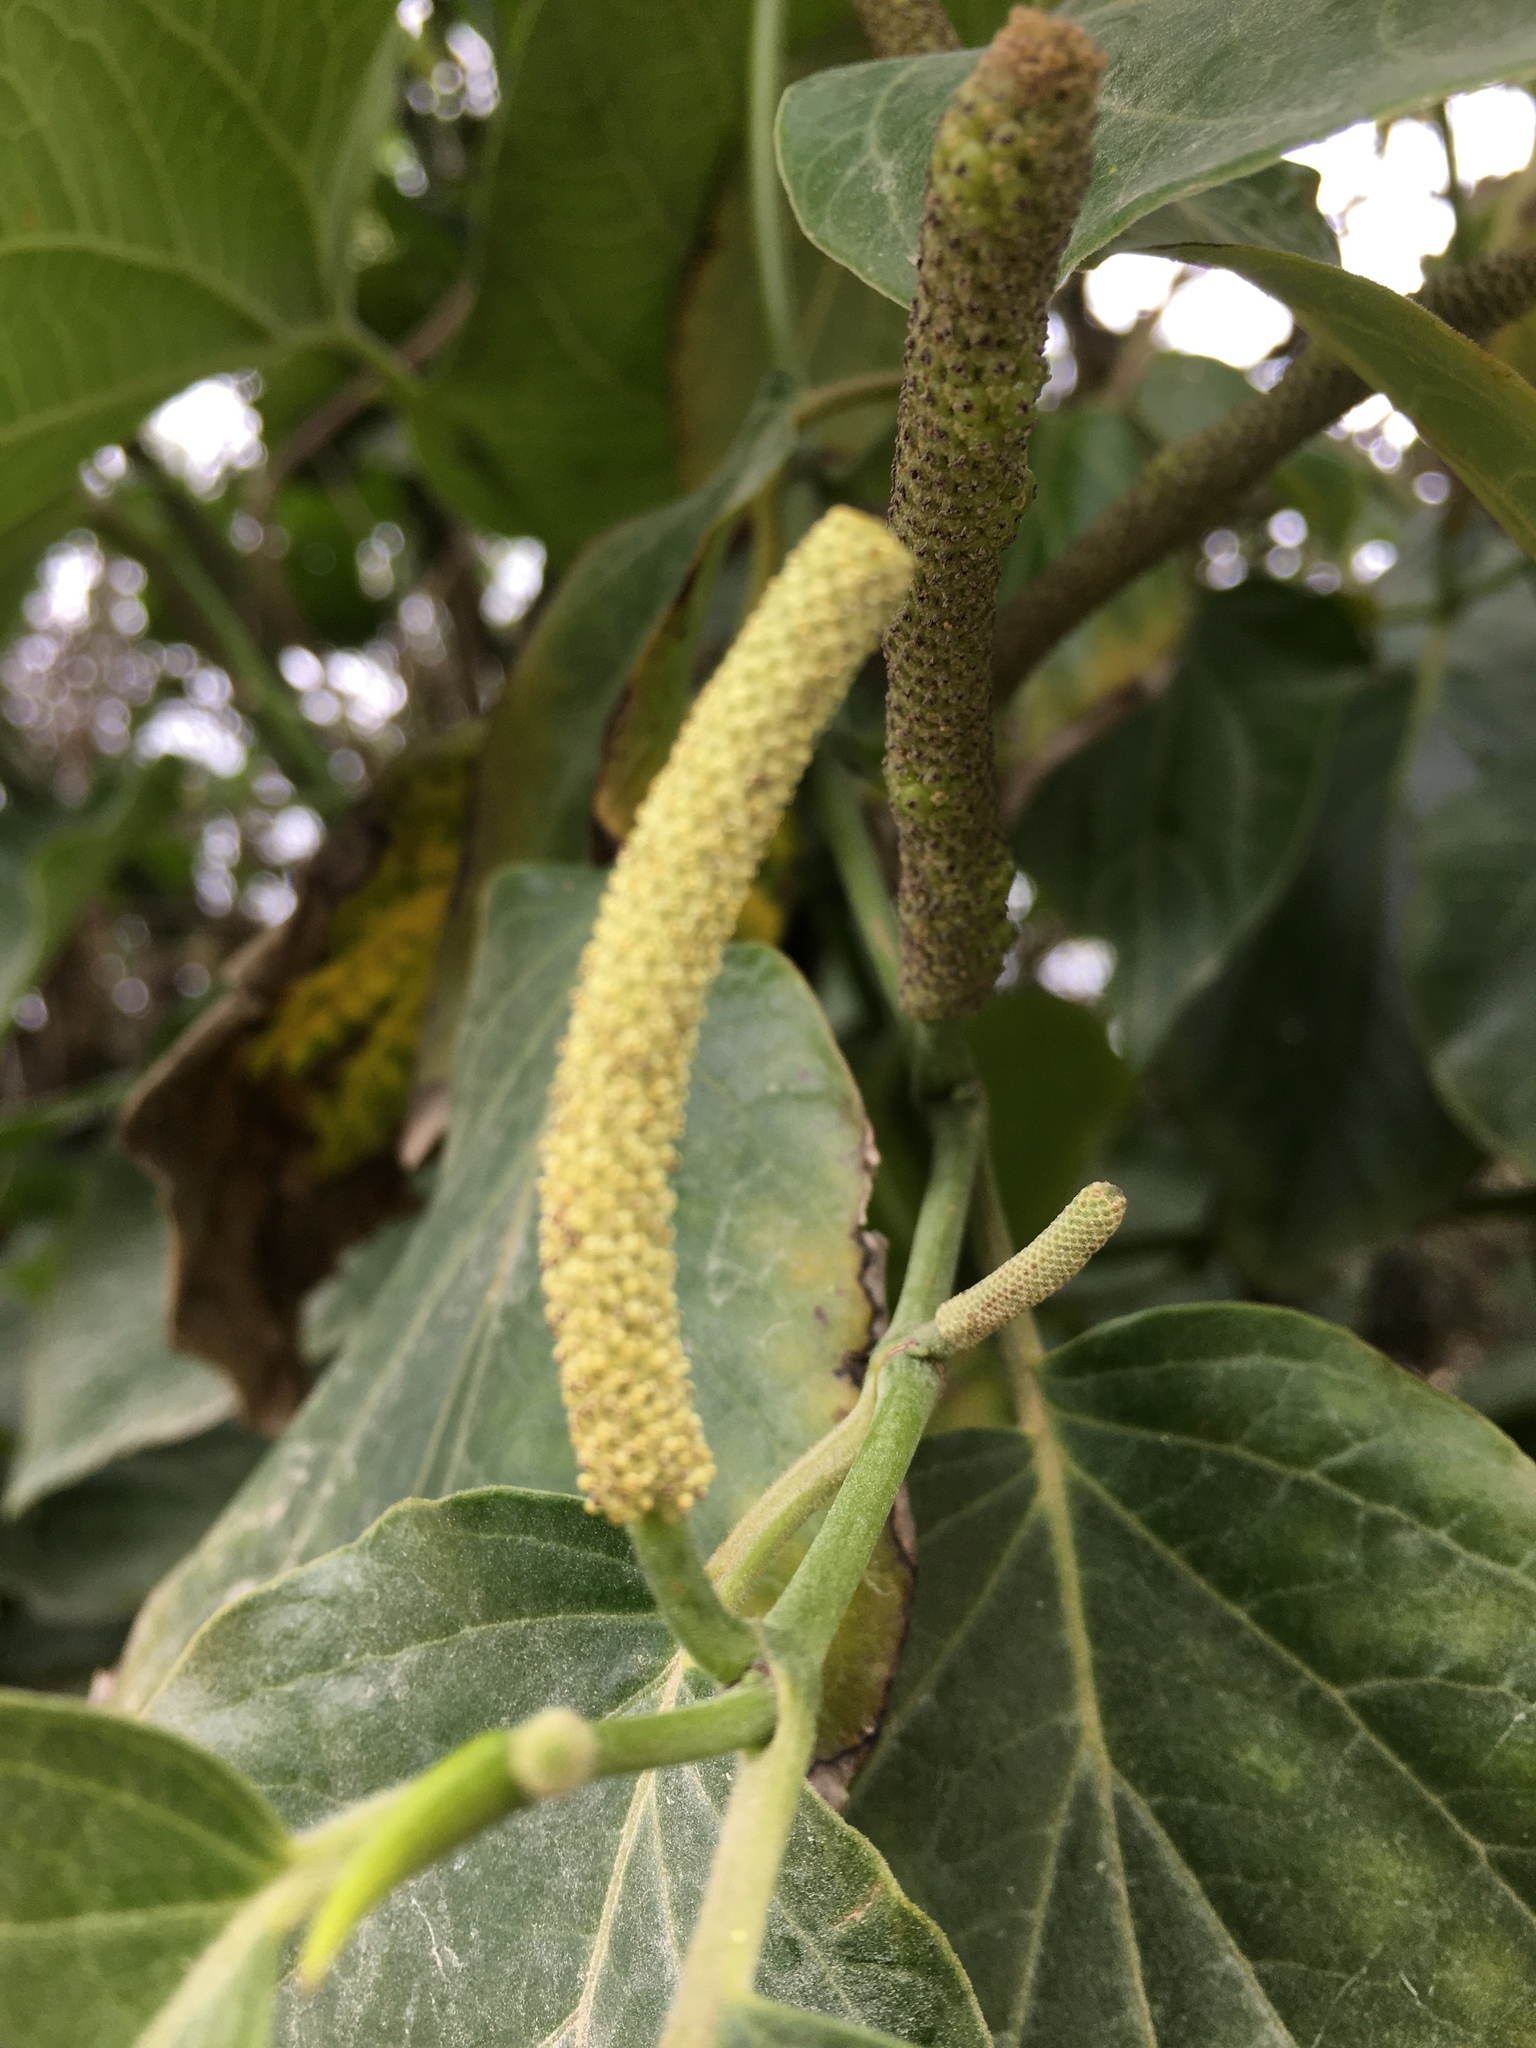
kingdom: Plantae
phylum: Tracheophyta
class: Magnoliopsida
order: Piperales
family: Piperaceae
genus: Piper
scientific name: Piper barbatum
